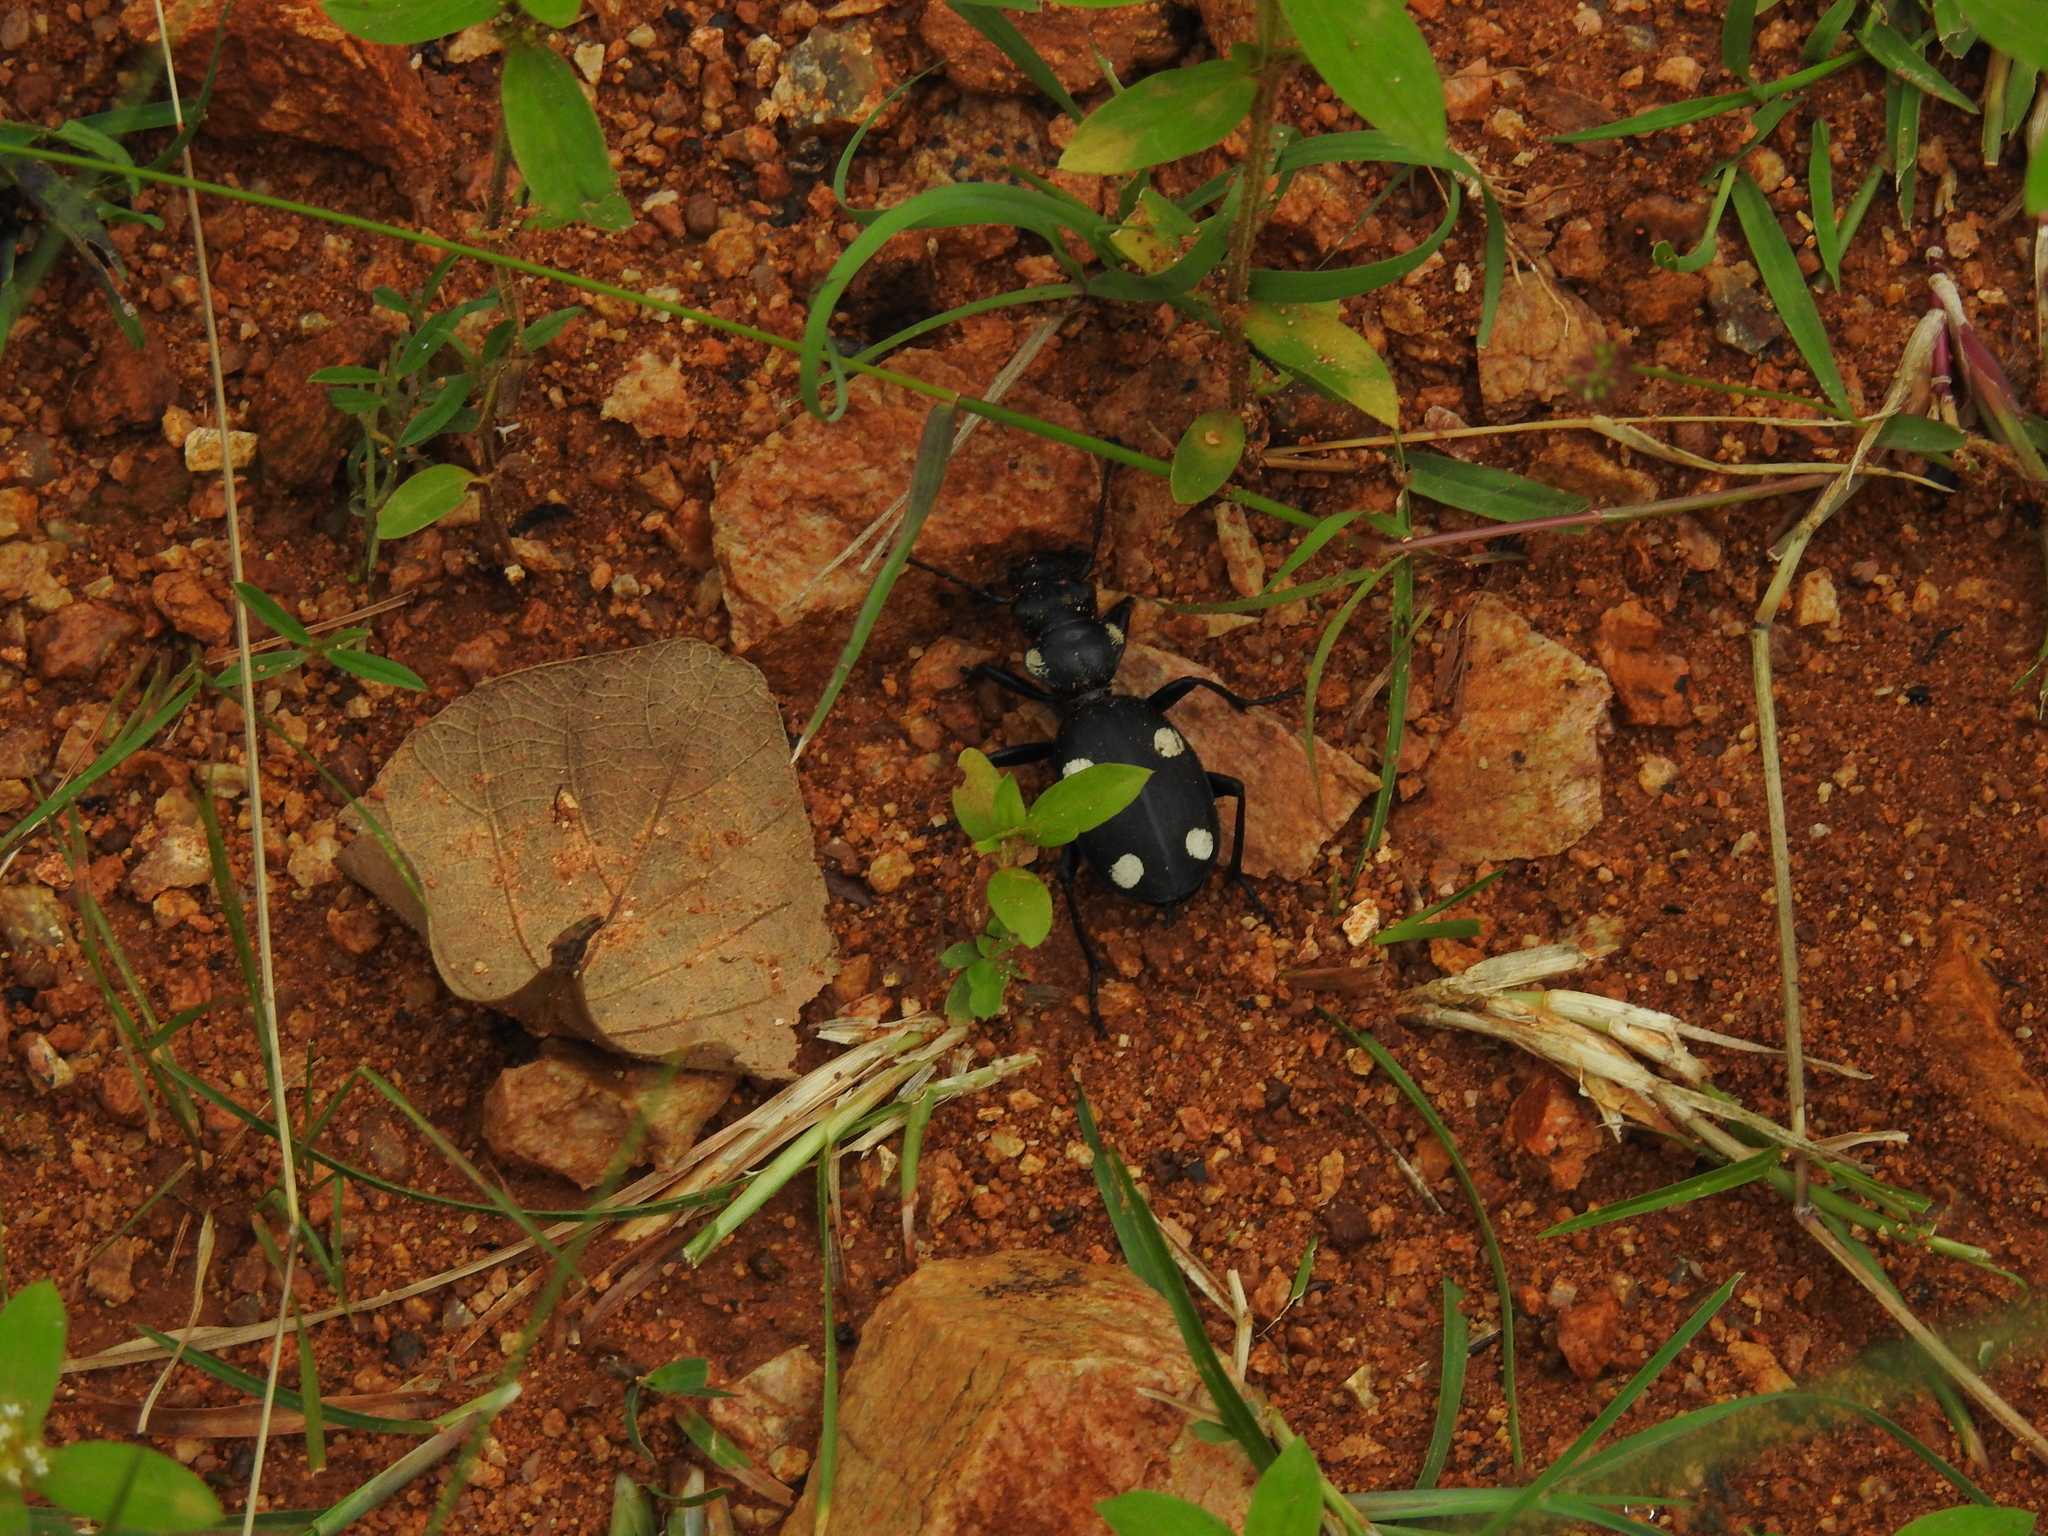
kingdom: Animalia
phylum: Arthropoda
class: Insecta
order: Coleoptera
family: Carabidae
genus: Anthia
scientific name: Anthia sexguttata
